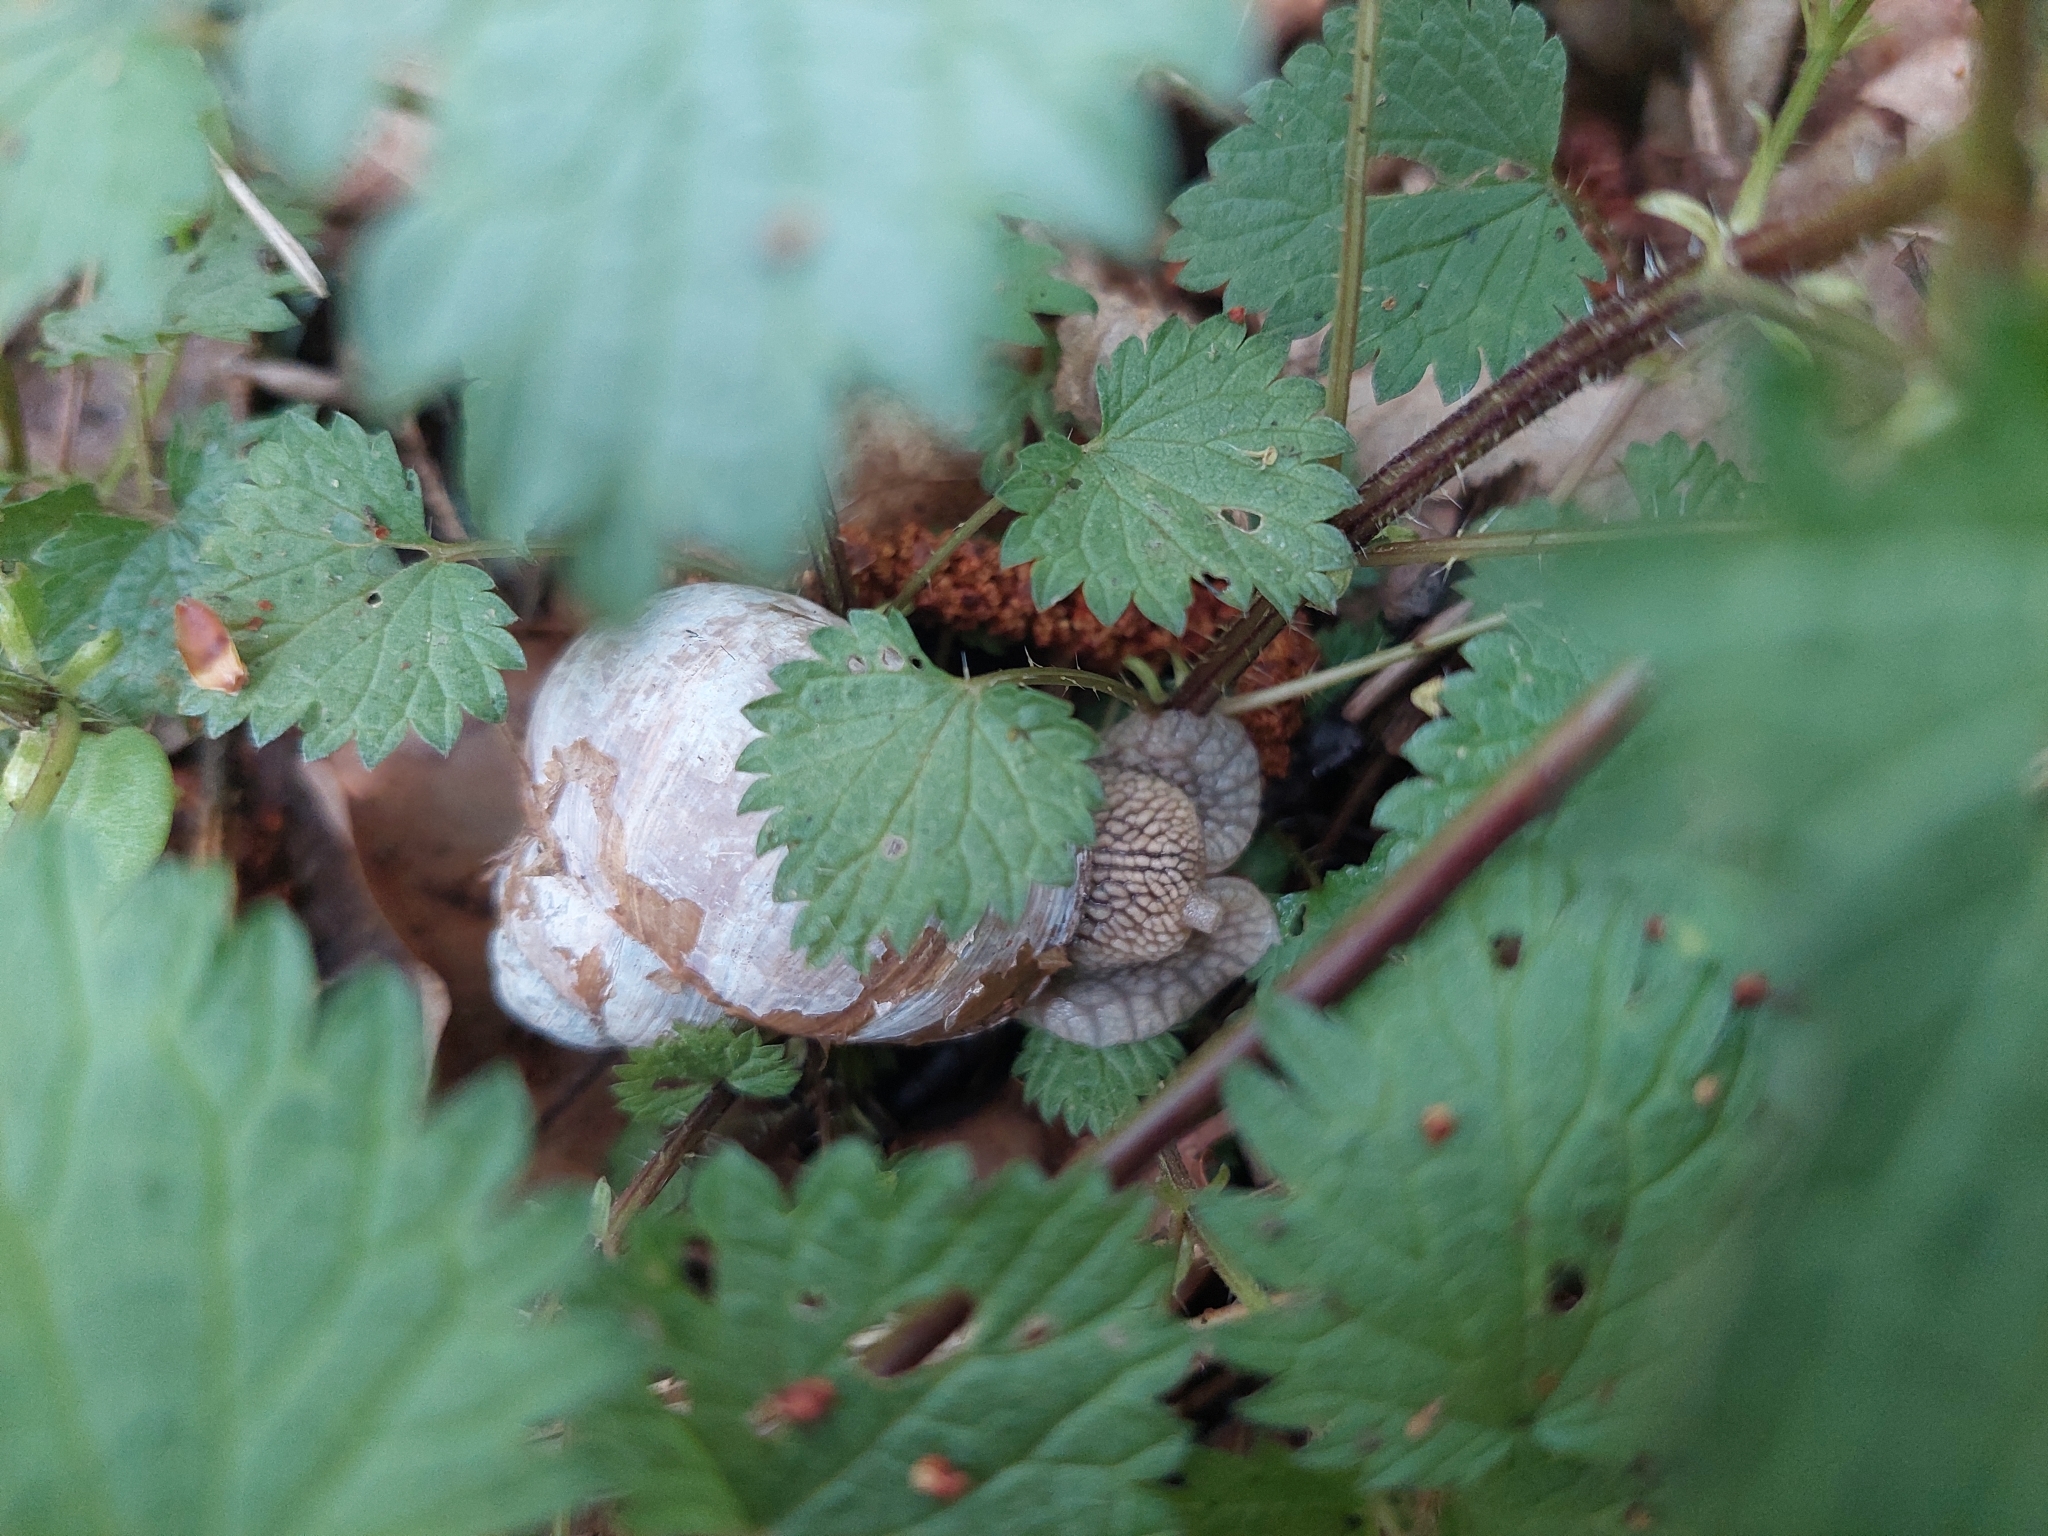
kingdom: Animalia
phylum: Mollusca
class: Gastropoda
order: Stylommatophora
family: Helicidae
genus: Helix
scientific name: Helix pomatia
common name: Roman snail
